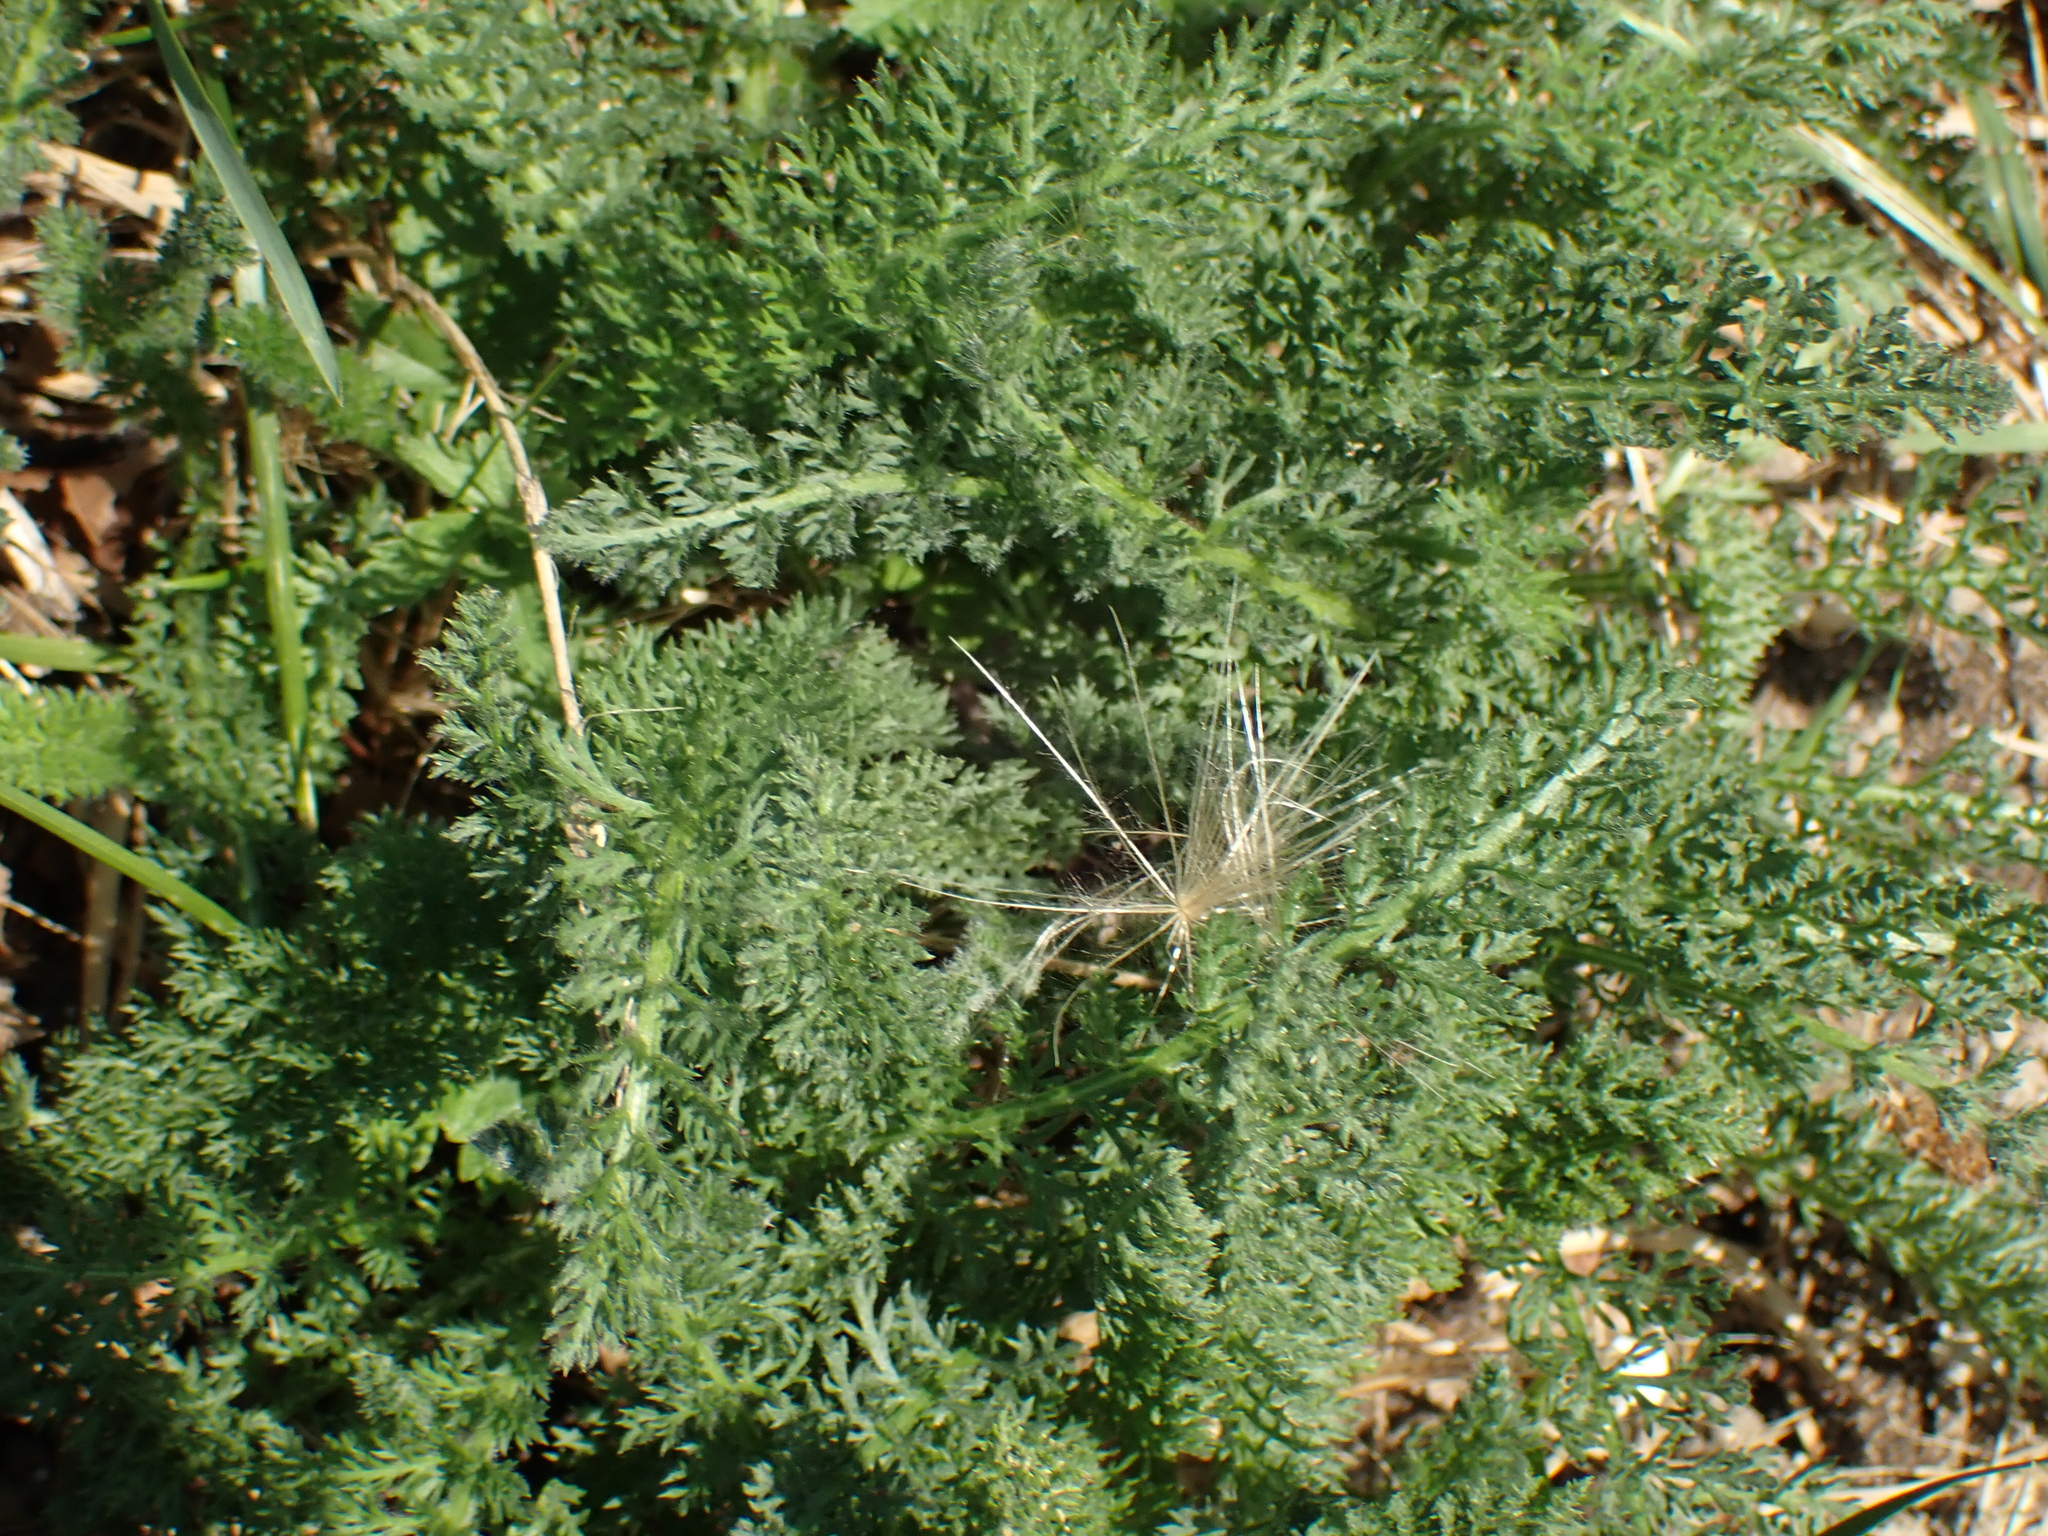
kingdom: Plantae
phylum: Tracheophyta
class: Magnoliopsida
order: Asterales
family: Asteraceae
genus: Achillea
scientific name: Achillea millefolium
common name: Yarrow
